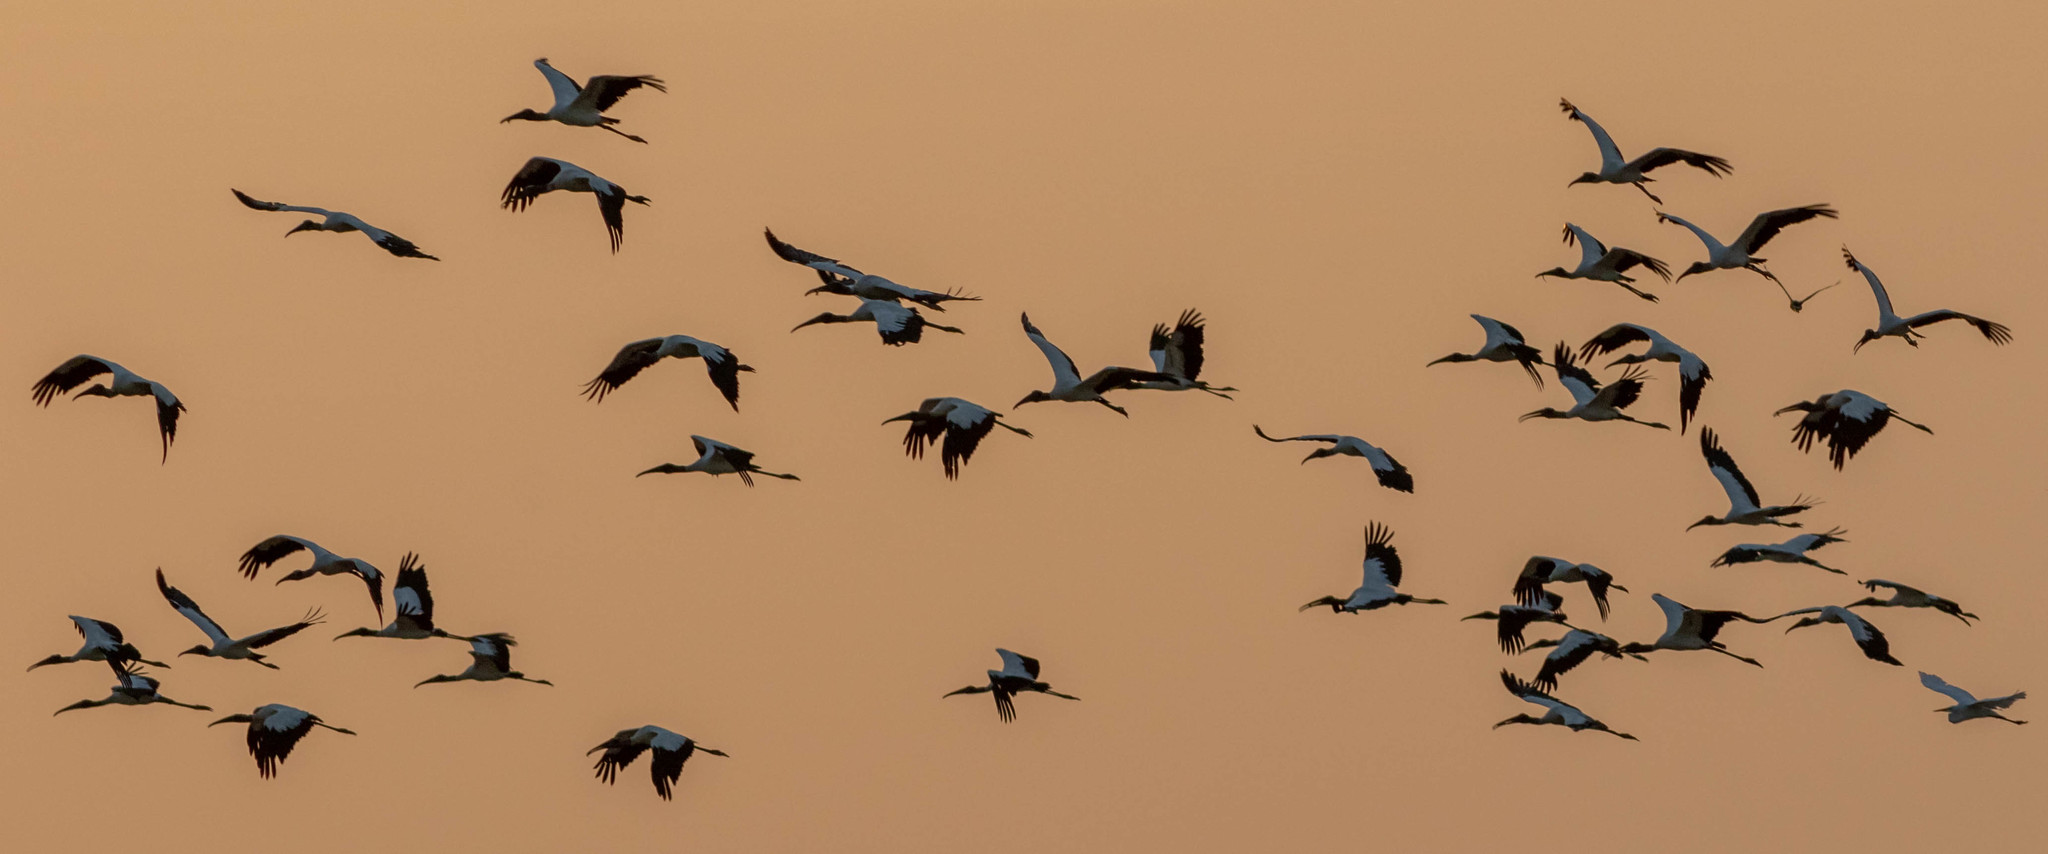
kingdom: Animalia
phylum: Chordata
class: Aves
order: Ciconiiformes
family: Ciconiidae
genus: Mycteria
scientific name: Mycteria americana
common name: Wood stork
